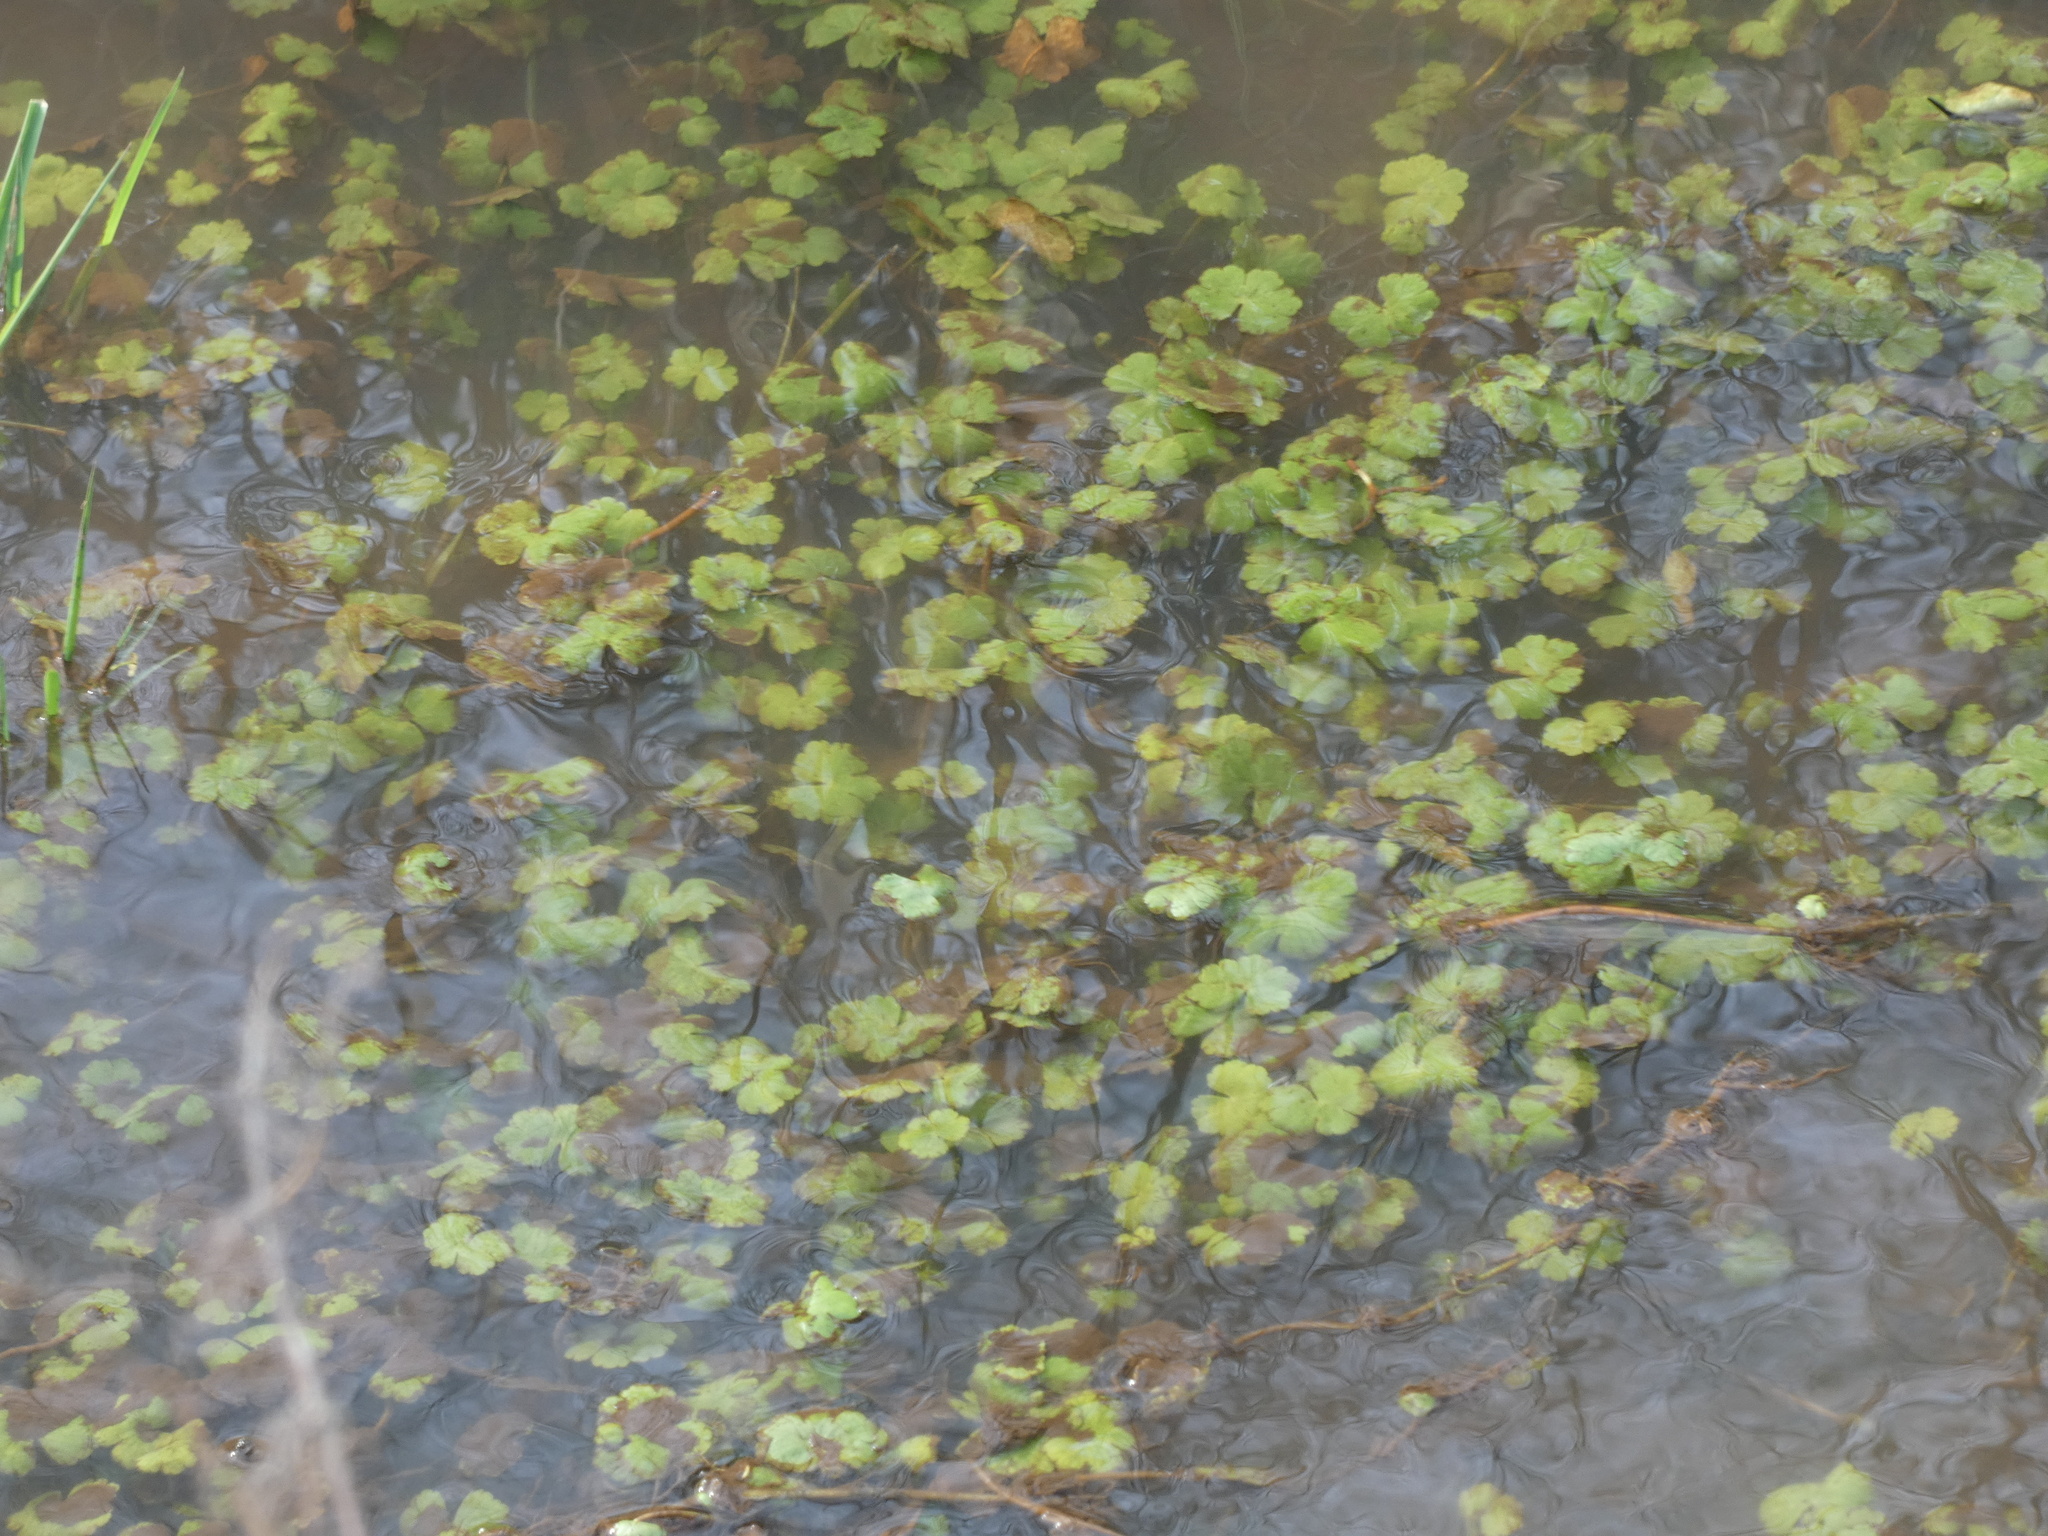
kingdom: Plantae
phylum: Tracheophyta
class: Magnoliopsida
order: Apiales
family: Araliaceae
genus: Hydrocotyle
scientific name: Hydrocotyle ranunculoides
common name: Floating pennywort
